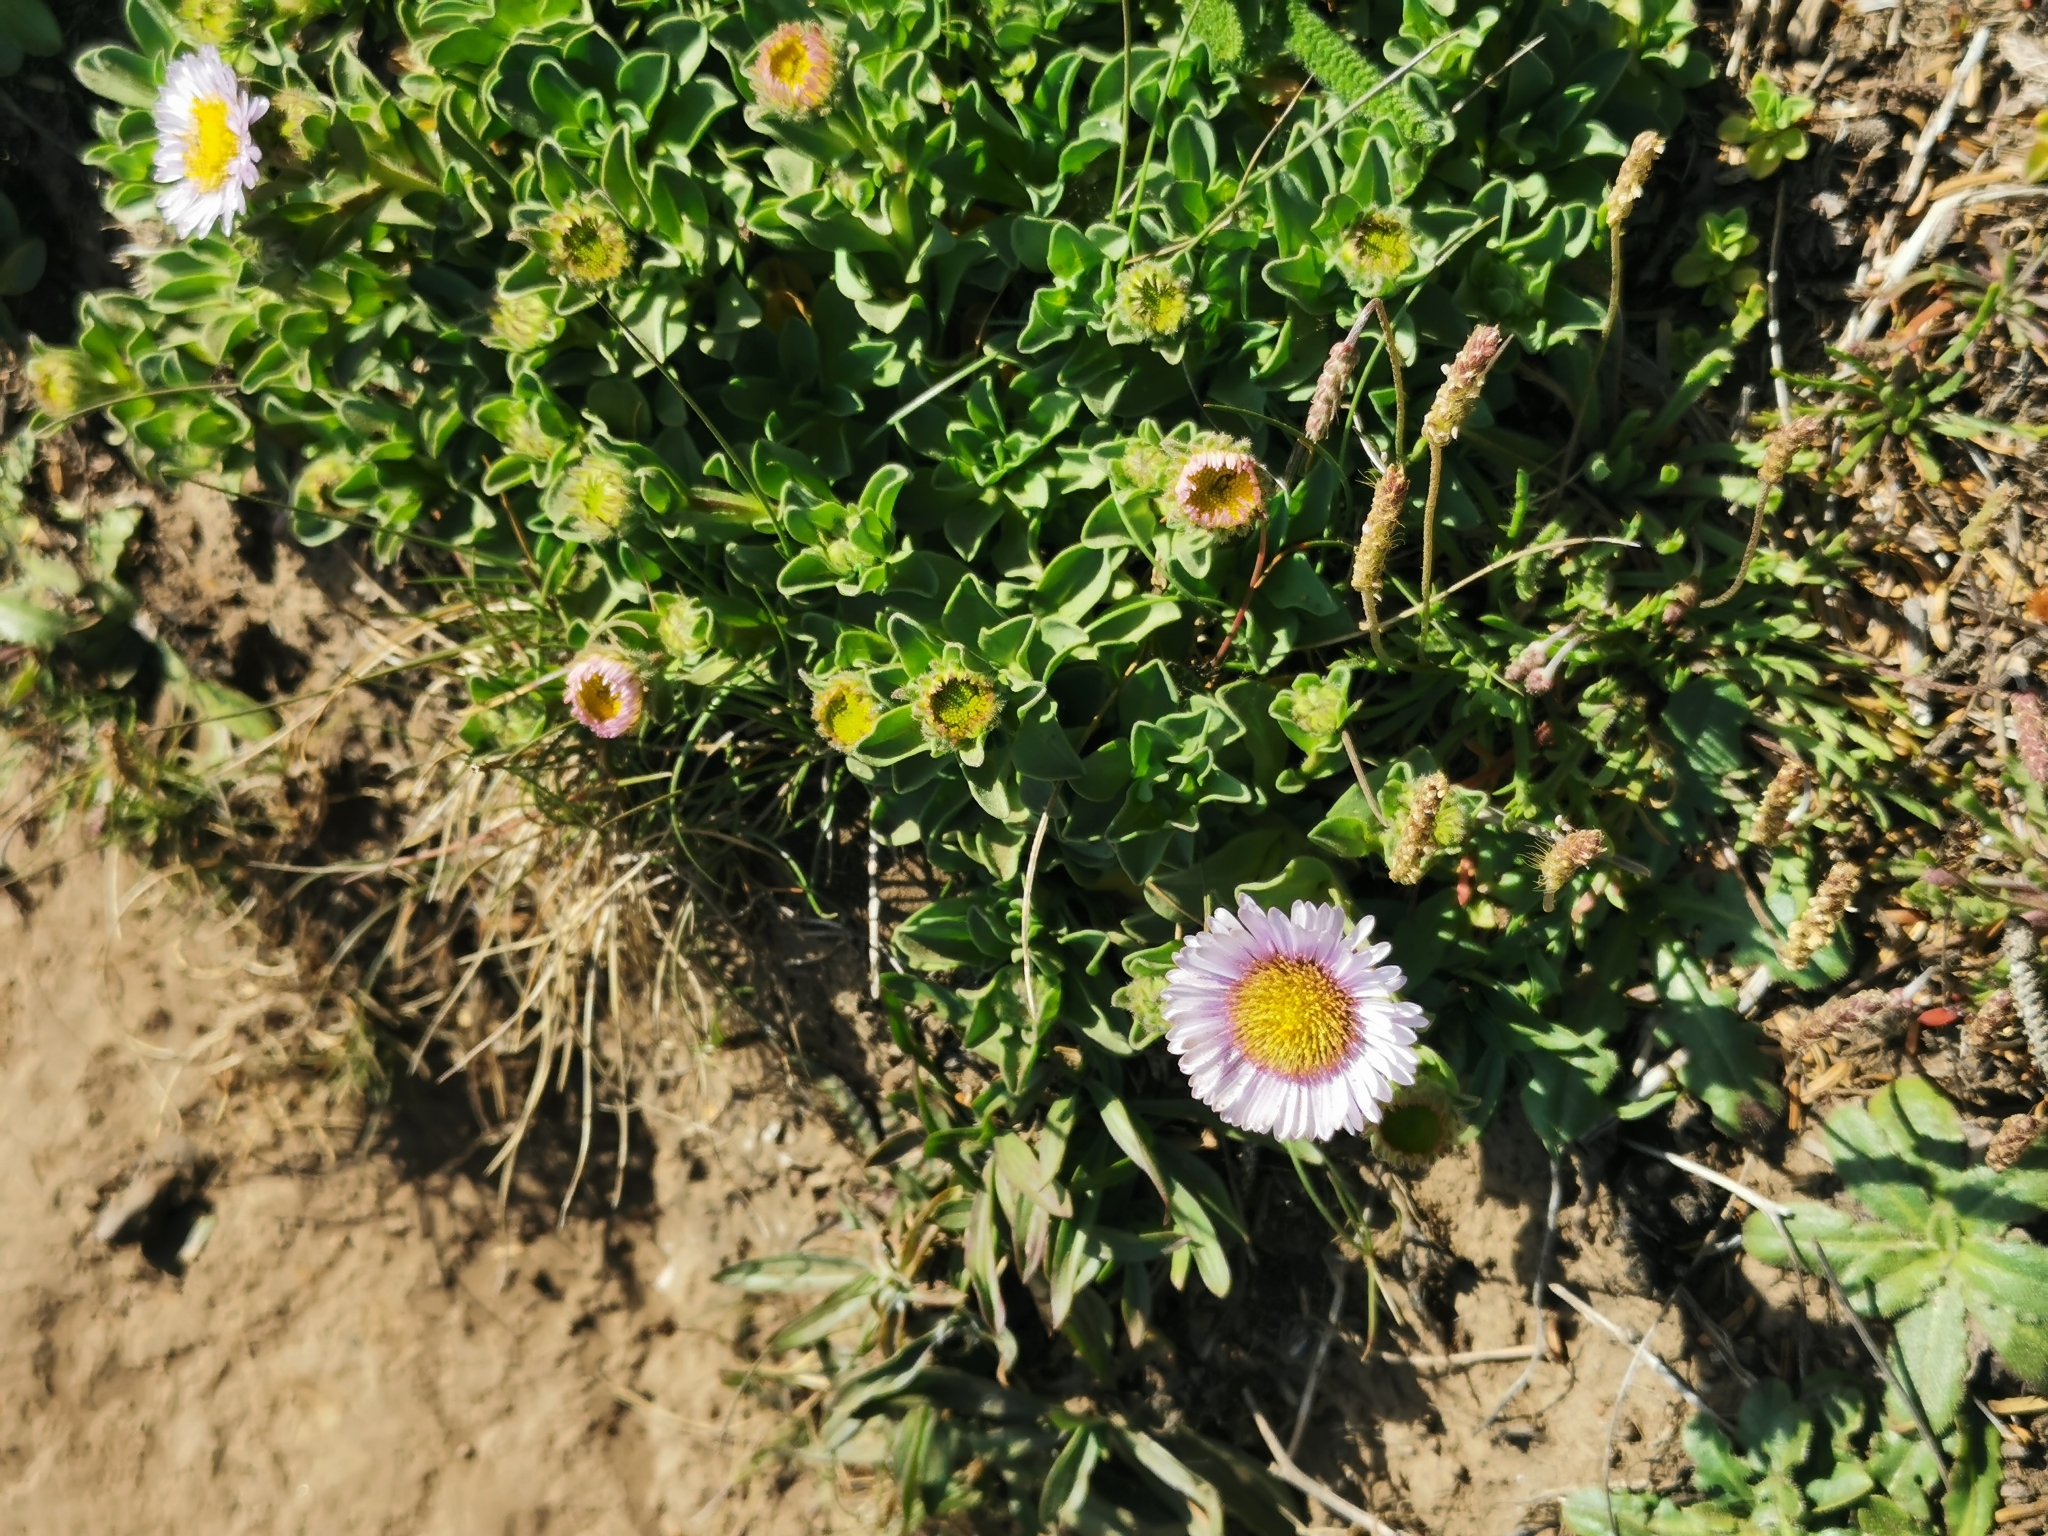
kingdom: Plantae
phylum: Tracheophyta
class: Magnoliopsida
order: Asterales
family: Asteraceae
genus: Erigeron
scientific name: Erigeron glaucus
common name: Seaside daisy
